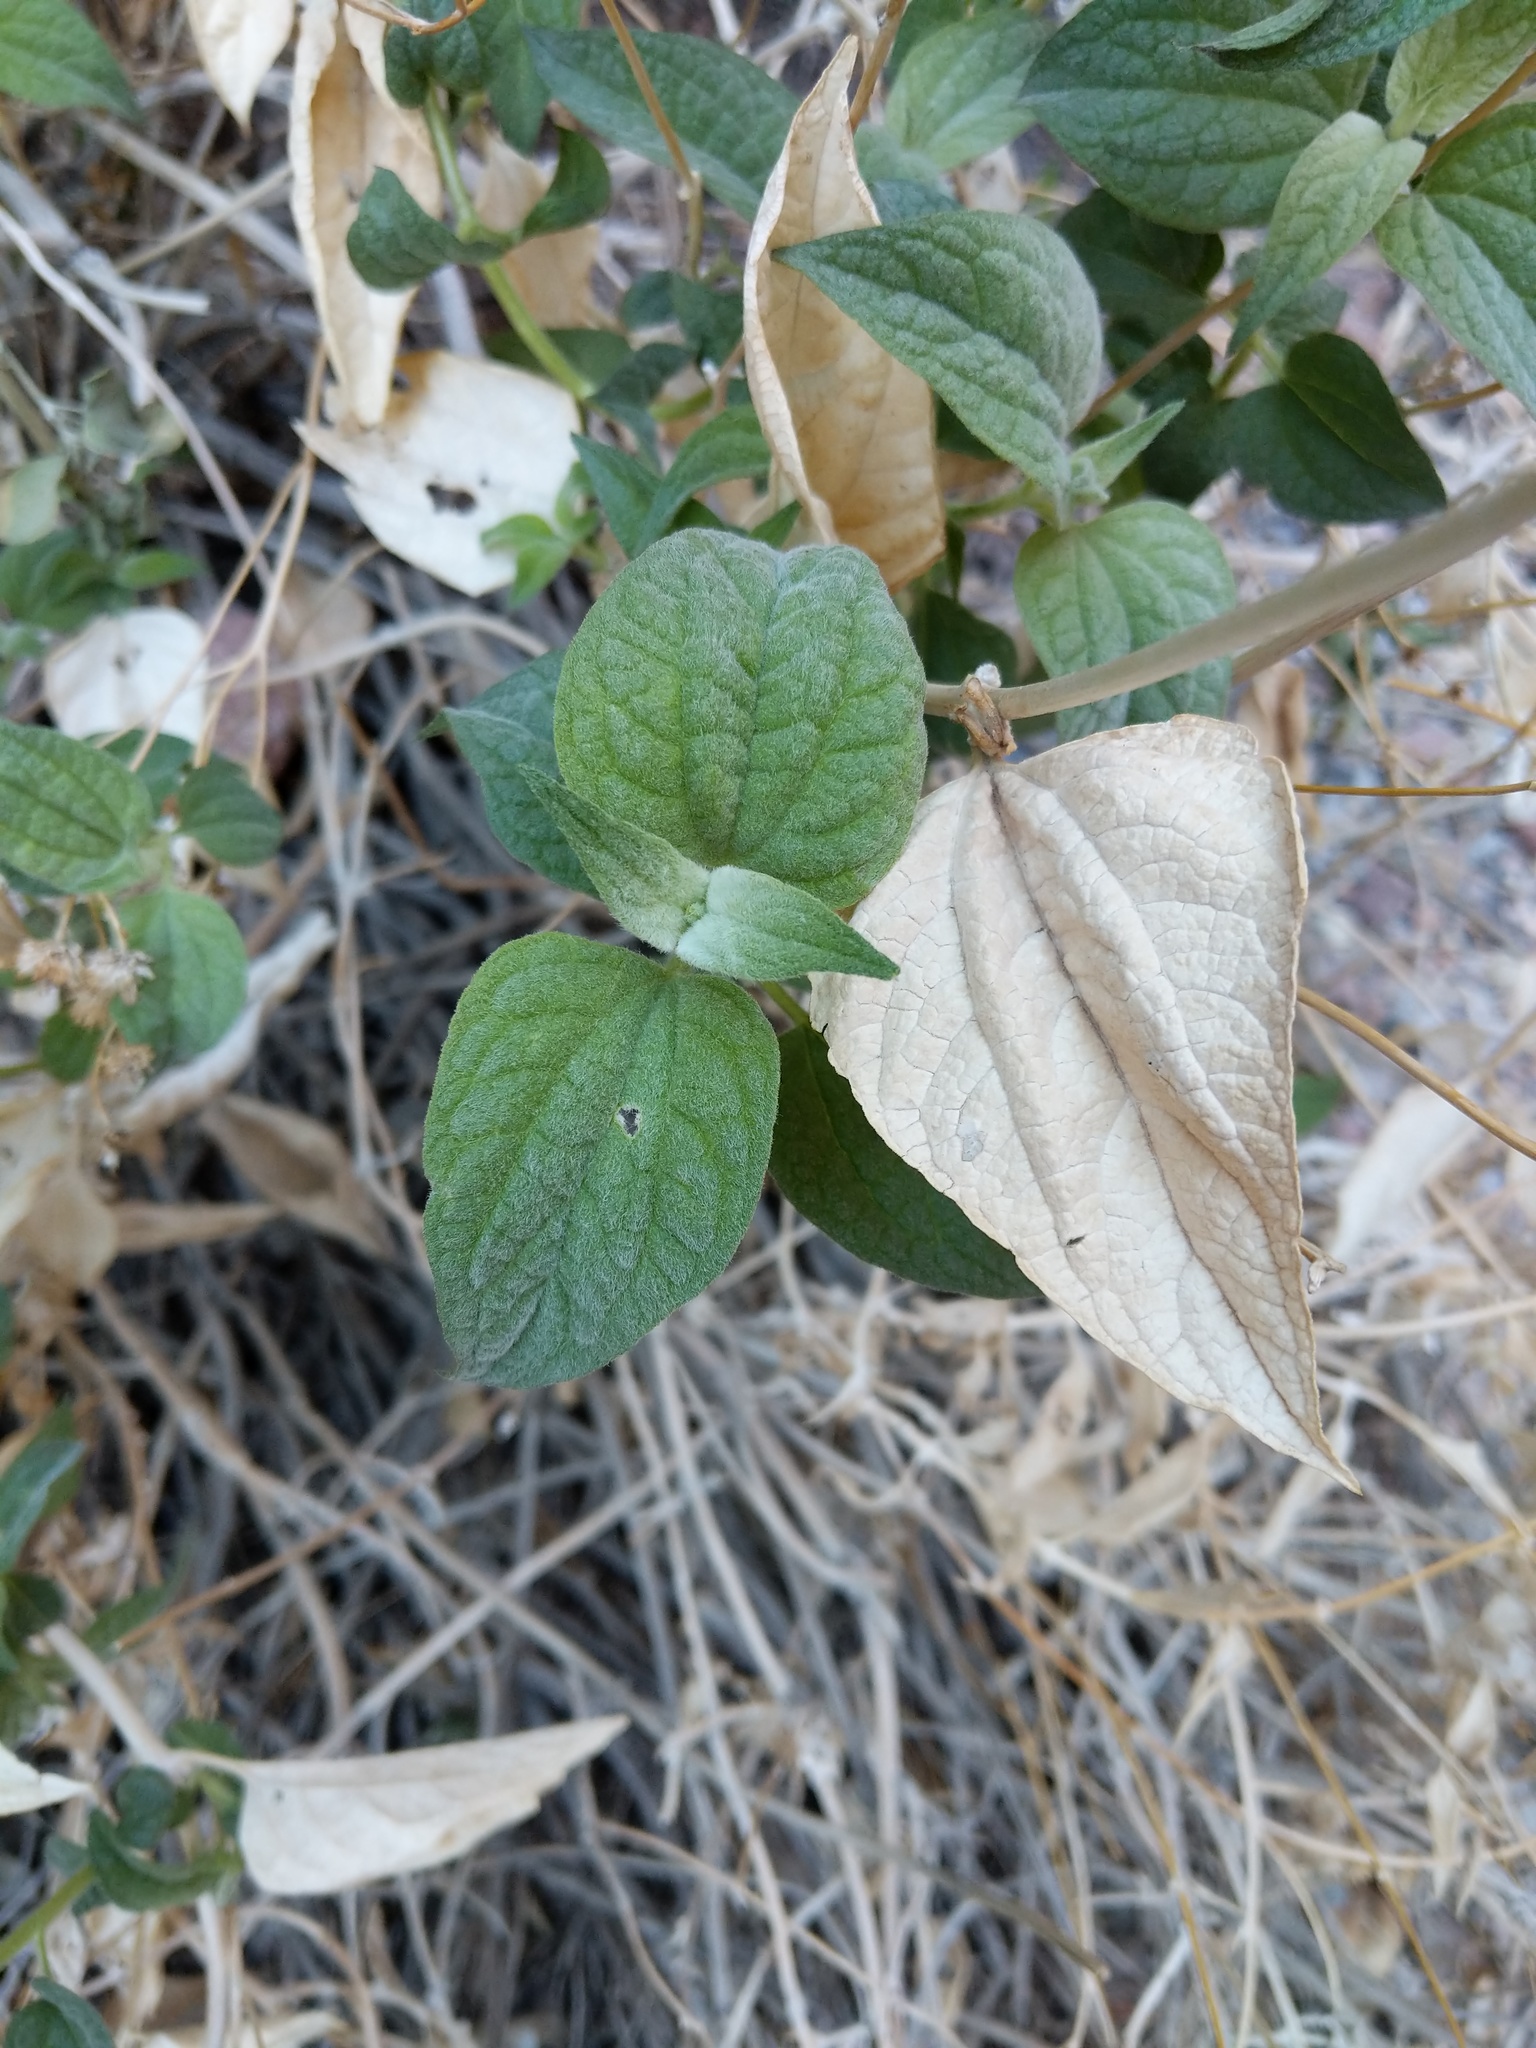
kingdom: Plantae
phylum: Tracheophyta
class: Magnoliopsida
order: Asterales
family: Asteraceae
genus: Bahiopsis
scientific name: Bahiopsis reticulata
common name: Death valley goldeneye
